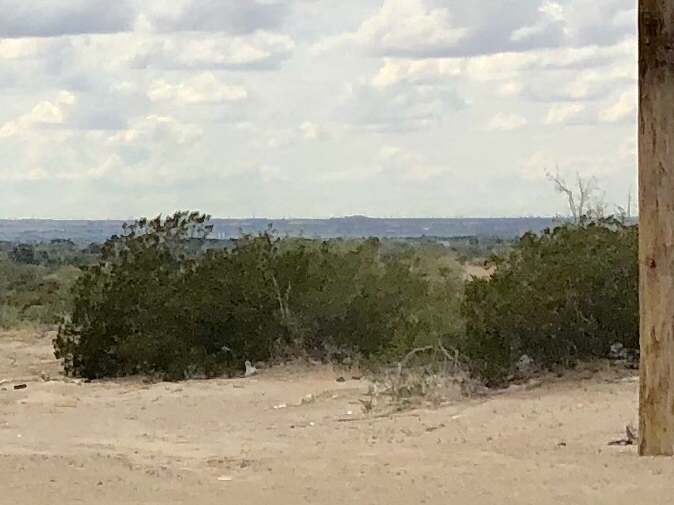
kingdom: Plantae
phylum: Tracheophyta
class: Magnoliopsida
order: Zygophyllales
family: Zygophyllaceae
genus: Larrea
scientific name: Larrea tridentata
